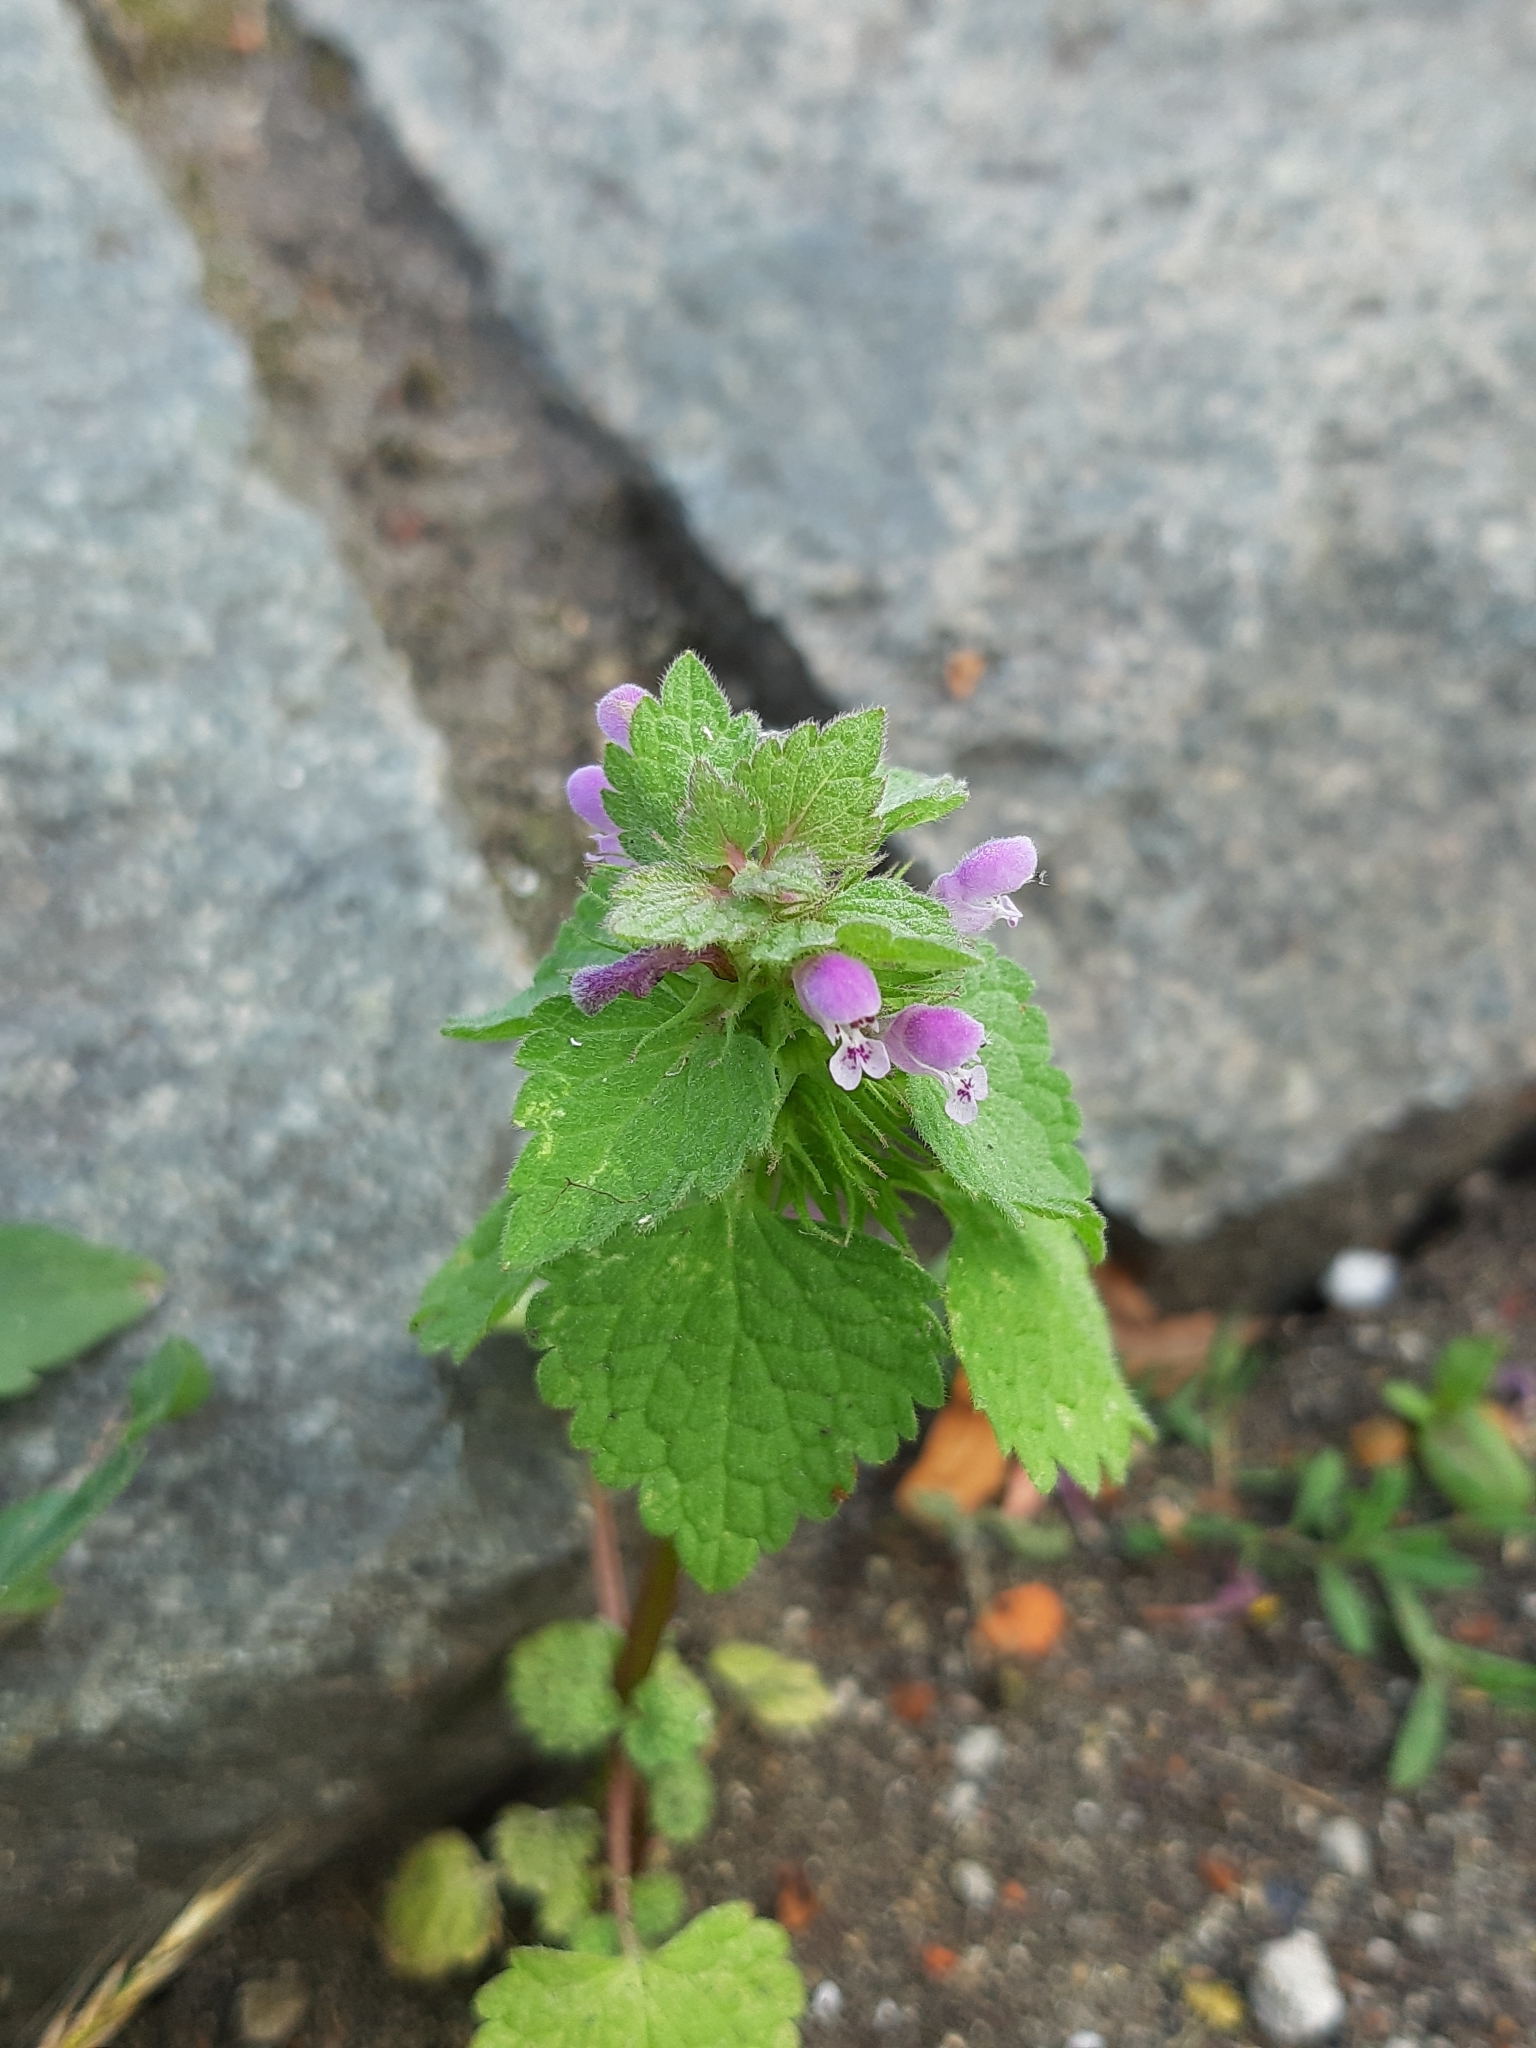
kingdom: Plantae
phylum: Tracheophyta
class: Magnoliopsida
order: Lamiales
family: Lamiaceae
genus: Lamium
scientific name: Lamium purpureum
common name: Red dead-nettle
